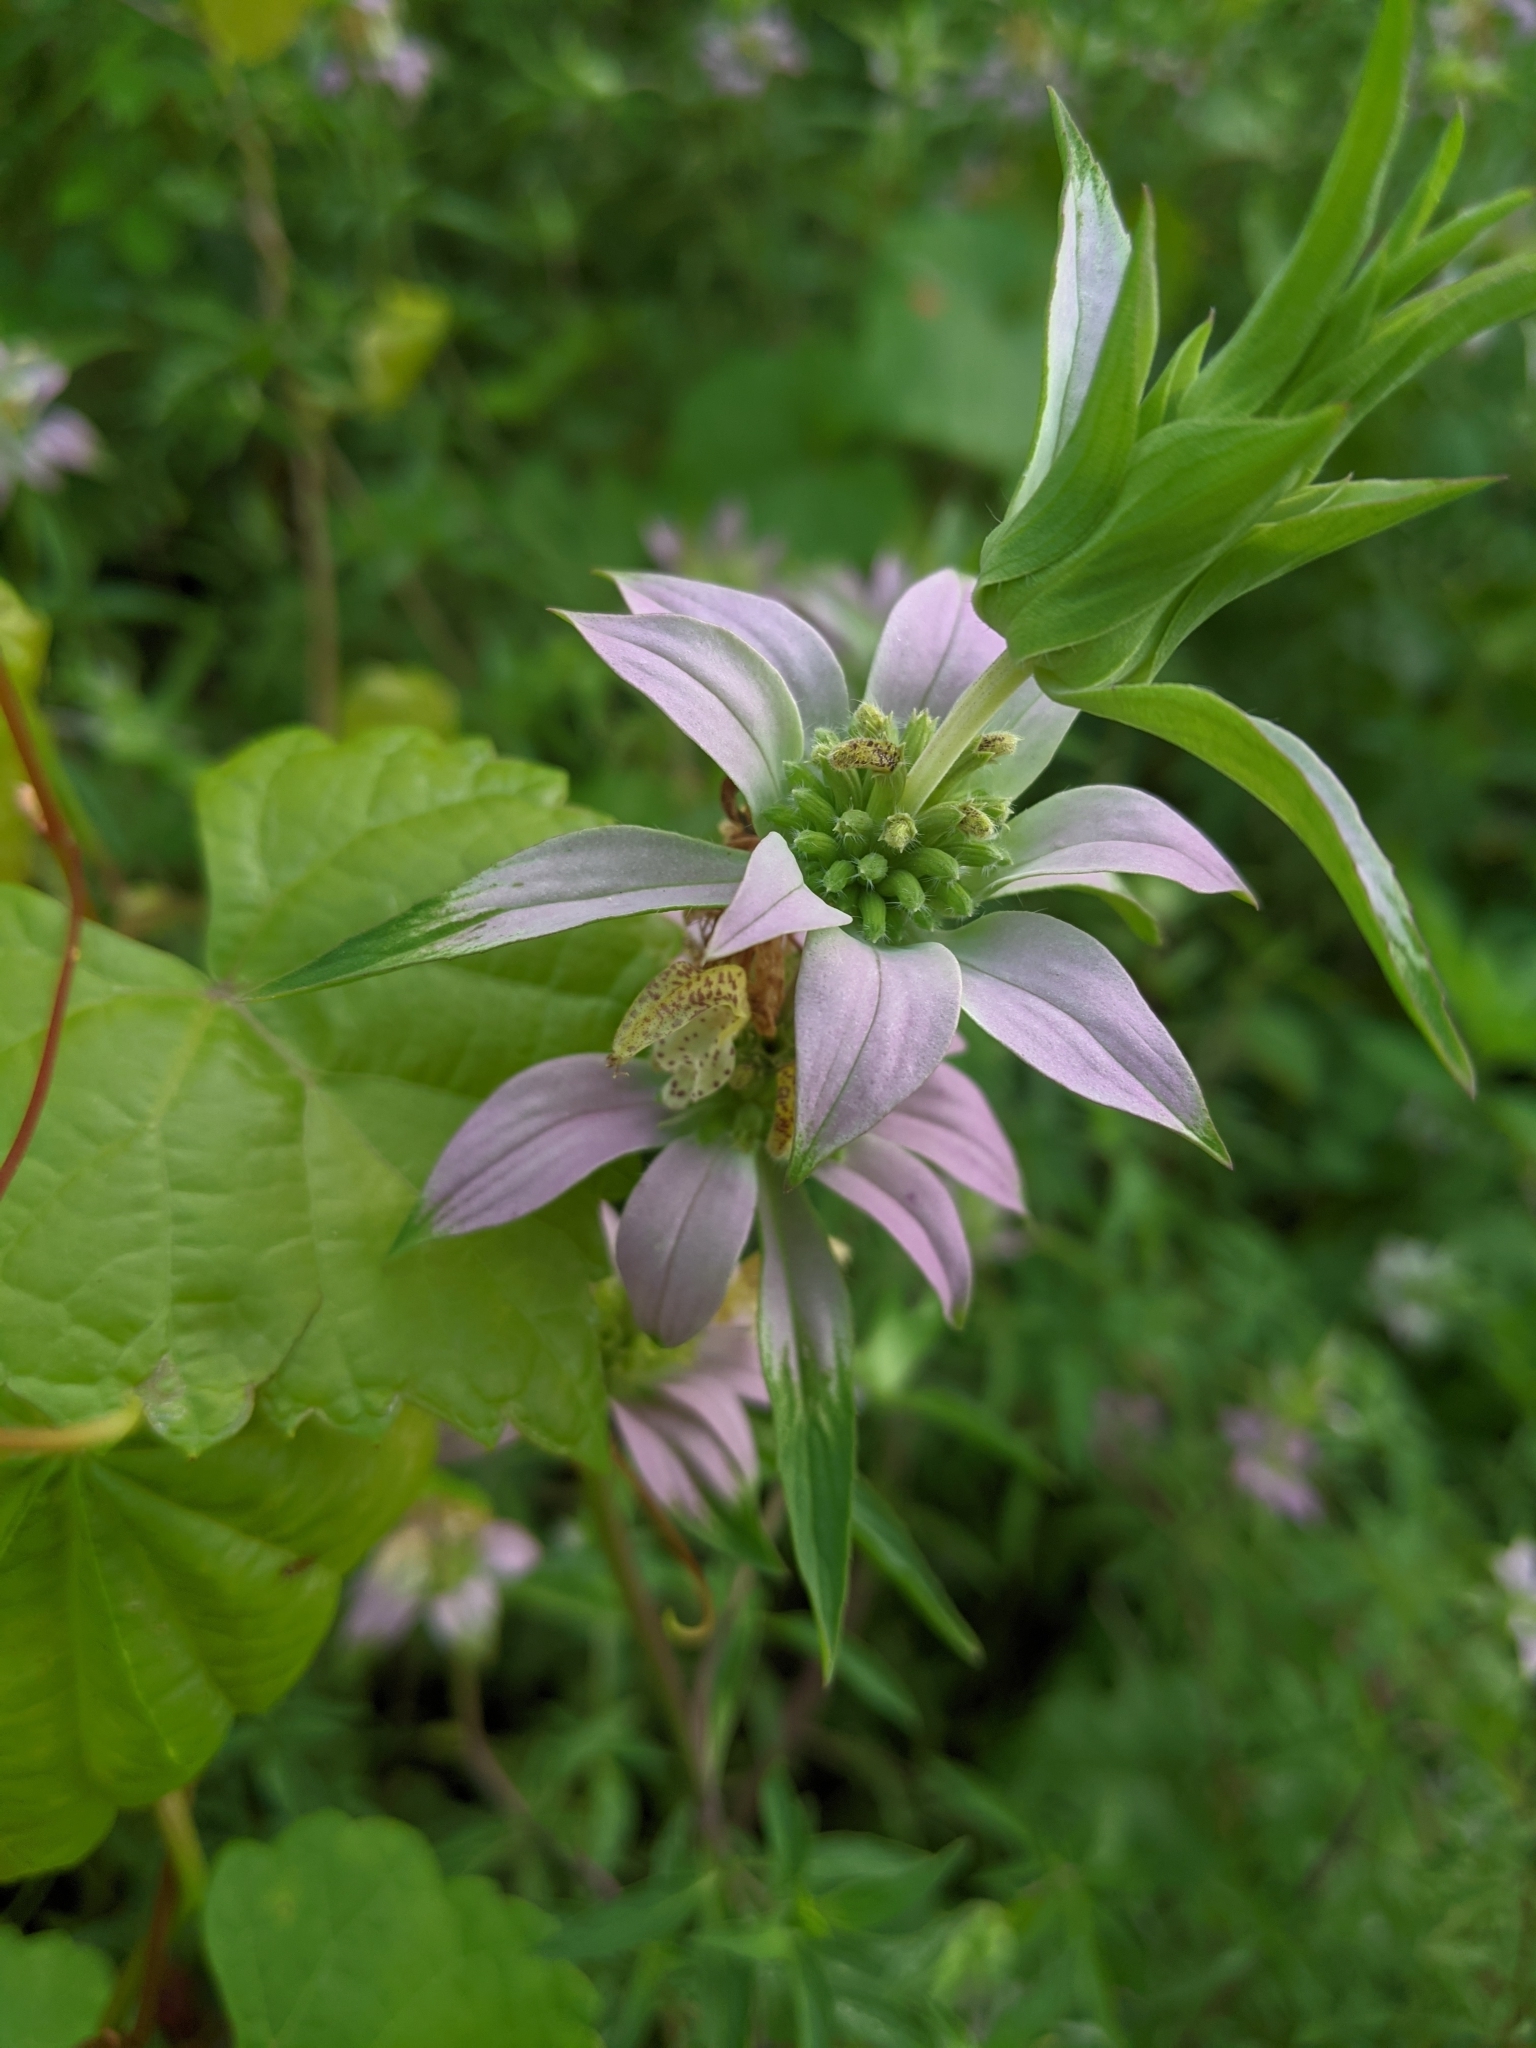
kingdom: Plantae
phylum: Tracheophyta
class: Magnoliopsida
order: Lamiales
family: Lamiaceae
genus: Monarda
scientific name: Monarda punctata
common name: Dotted monarda
